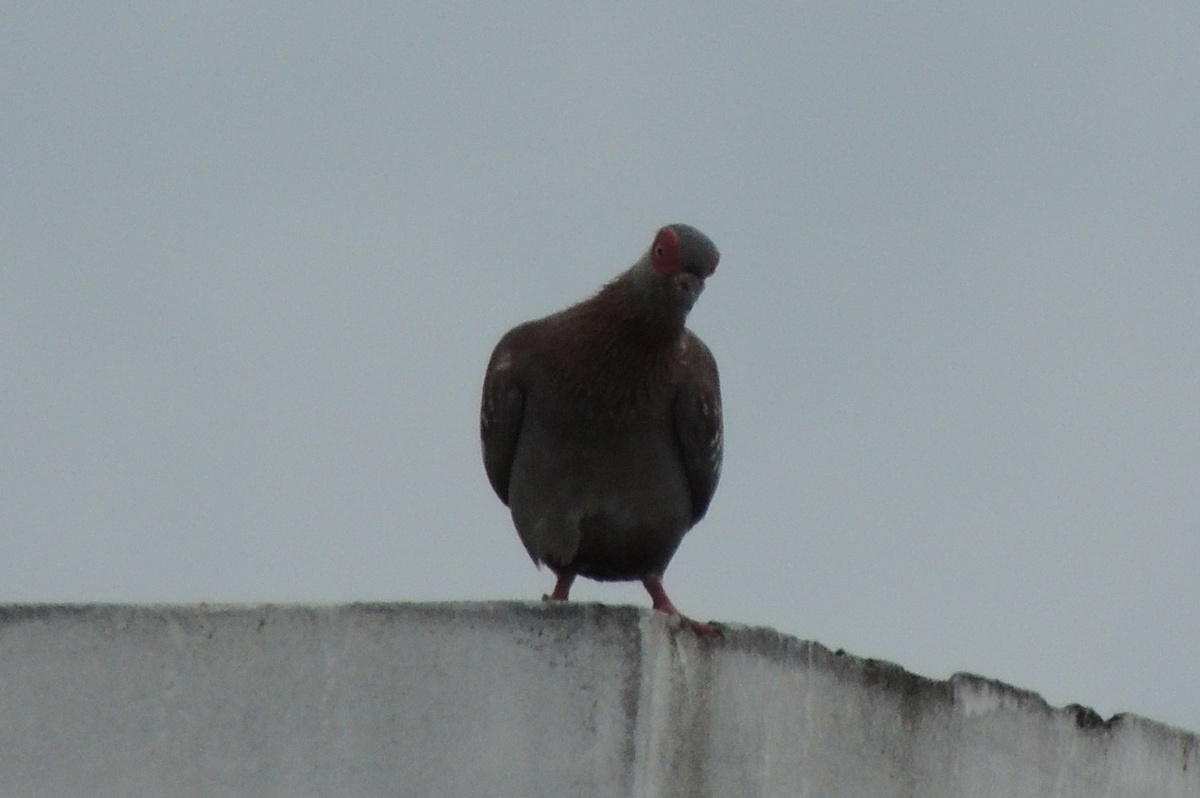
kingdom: Animalia
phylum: Chordata
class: Aves
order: Columbiformes
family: Columbidae
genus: Columba
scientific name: Columba guinea
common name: Speckled pigeon
